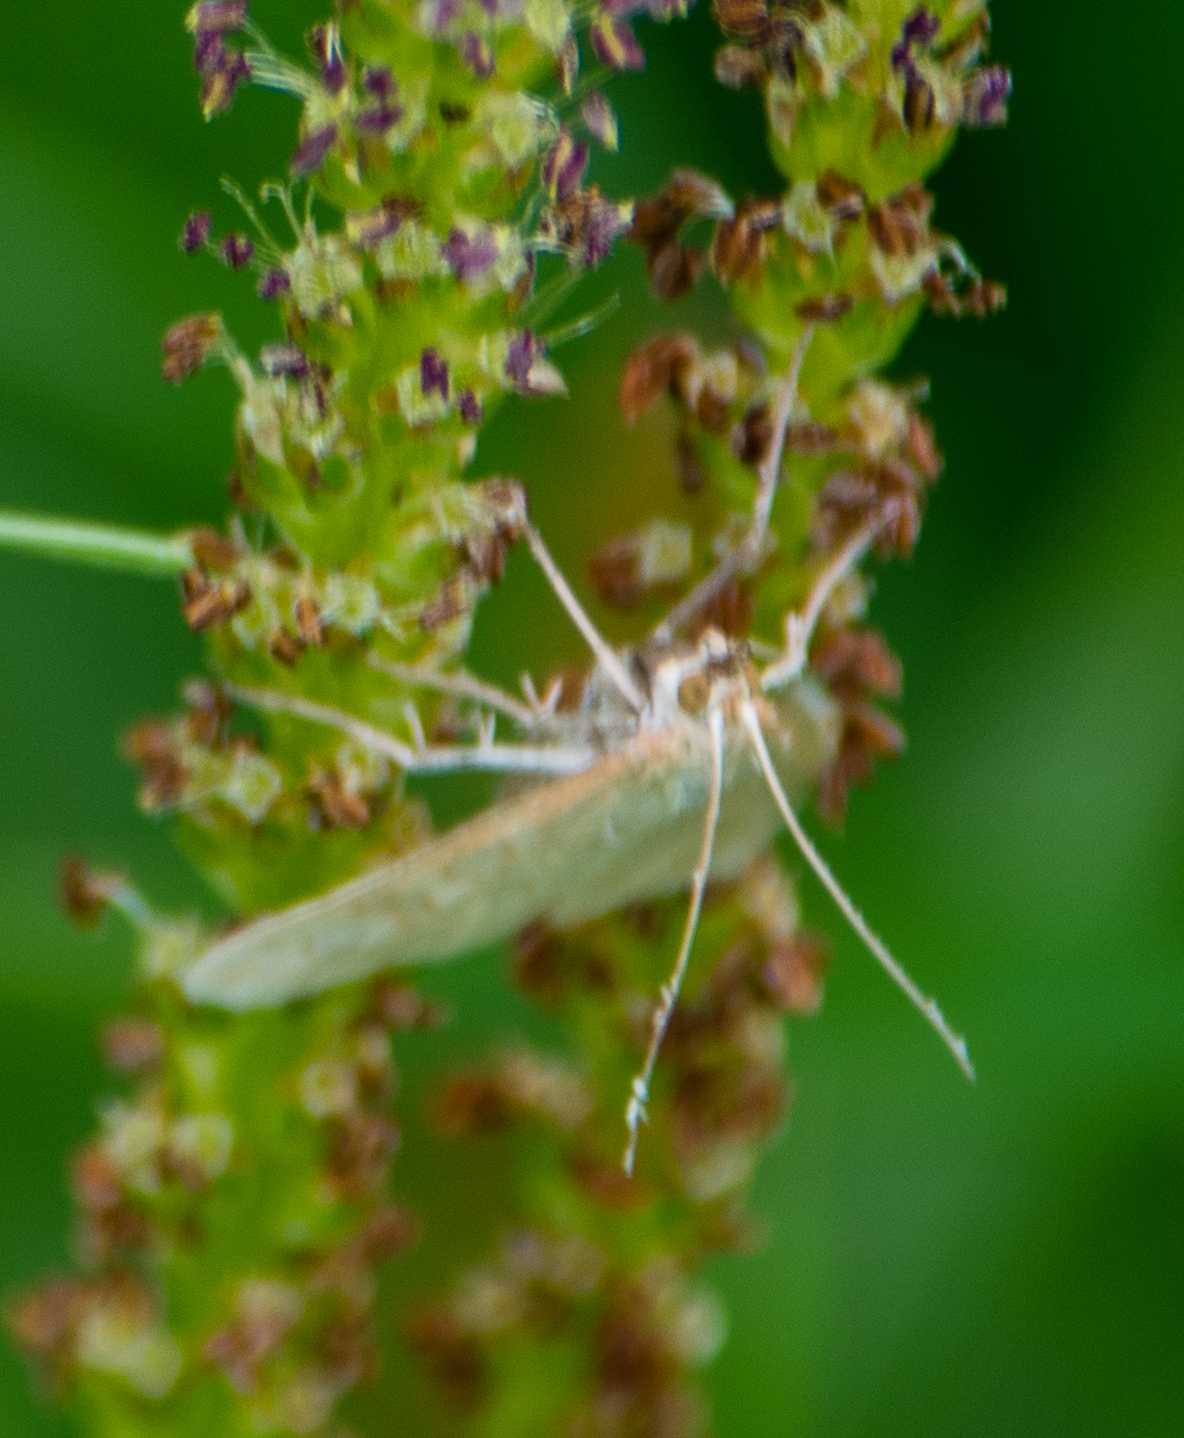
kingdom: Animalia
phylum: Arthropoda
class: Insecta
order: Lepidoptera
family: Crambidae
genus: Udea
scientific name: Udea lutealis
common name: Pale straw pearl
